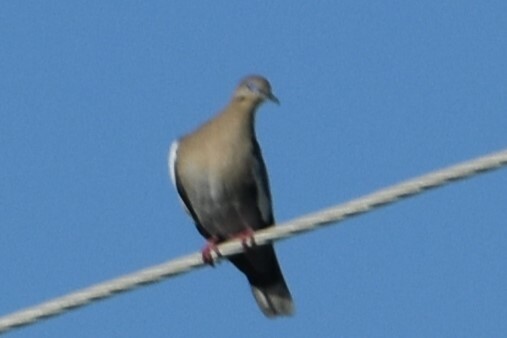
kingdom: Animalia
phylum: Chordata
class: Aves
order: Columbiformes
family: Columbidae
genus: Zenaida
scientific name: Zenaida asiatica
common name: White-winged dove
